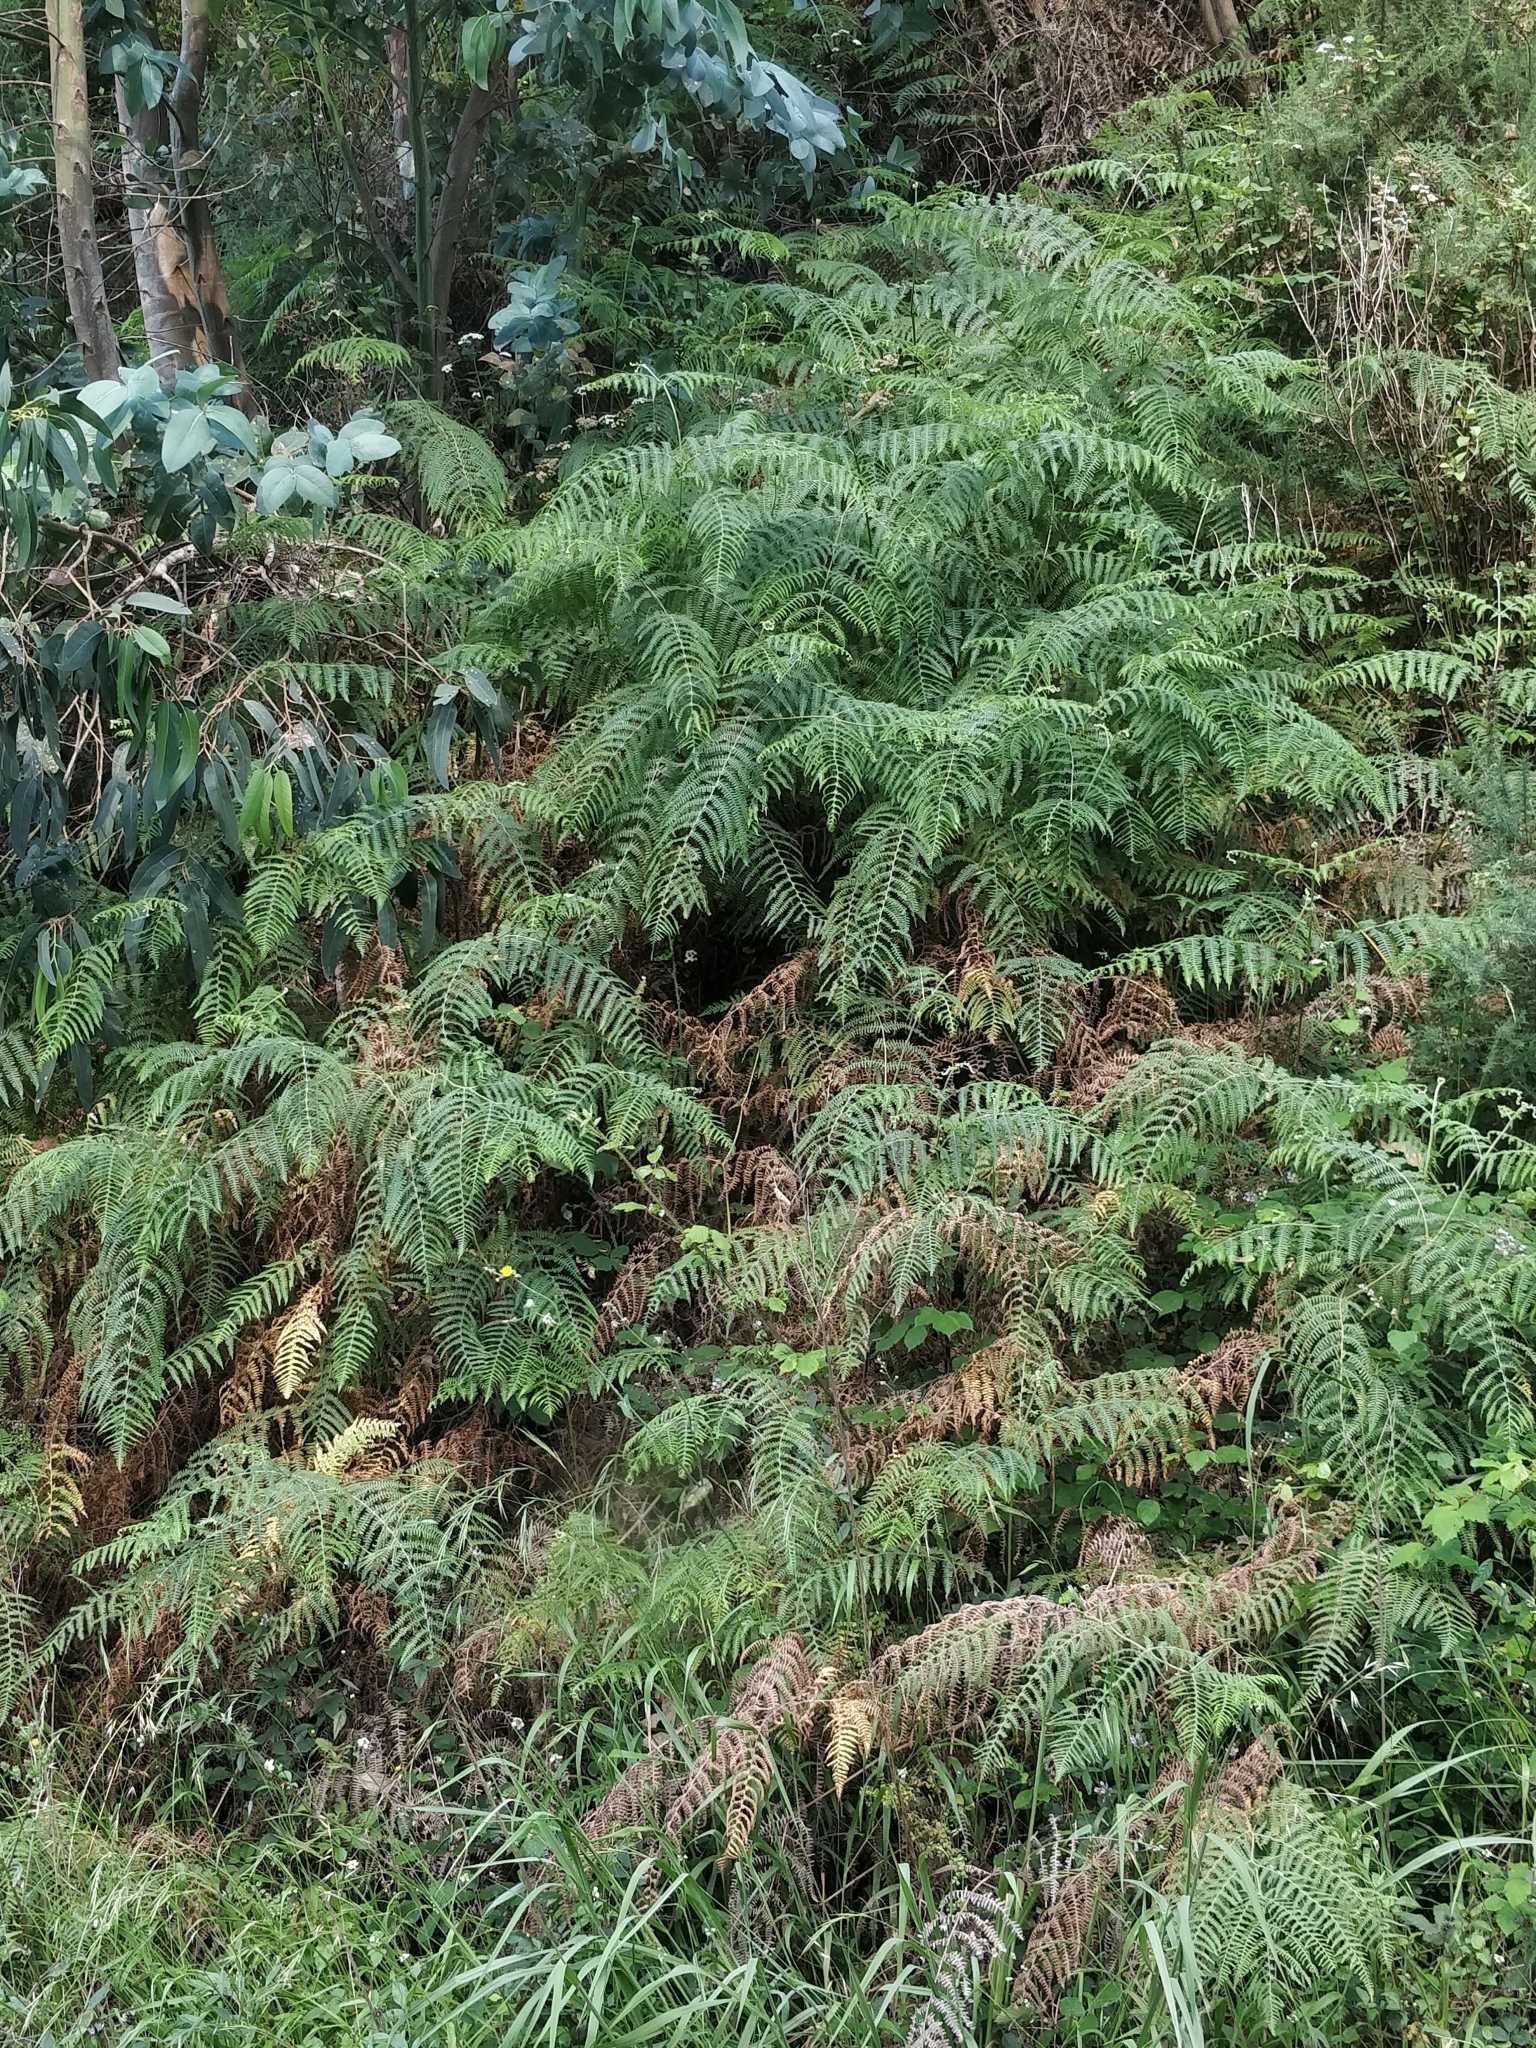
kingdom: Plantae
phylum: Tracheophyta
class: Polypodiopsida
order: Polypodiales
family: Dennstaedtiaceae
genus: Pteridium
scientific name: Pteridium aquilinum
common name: Bracken
